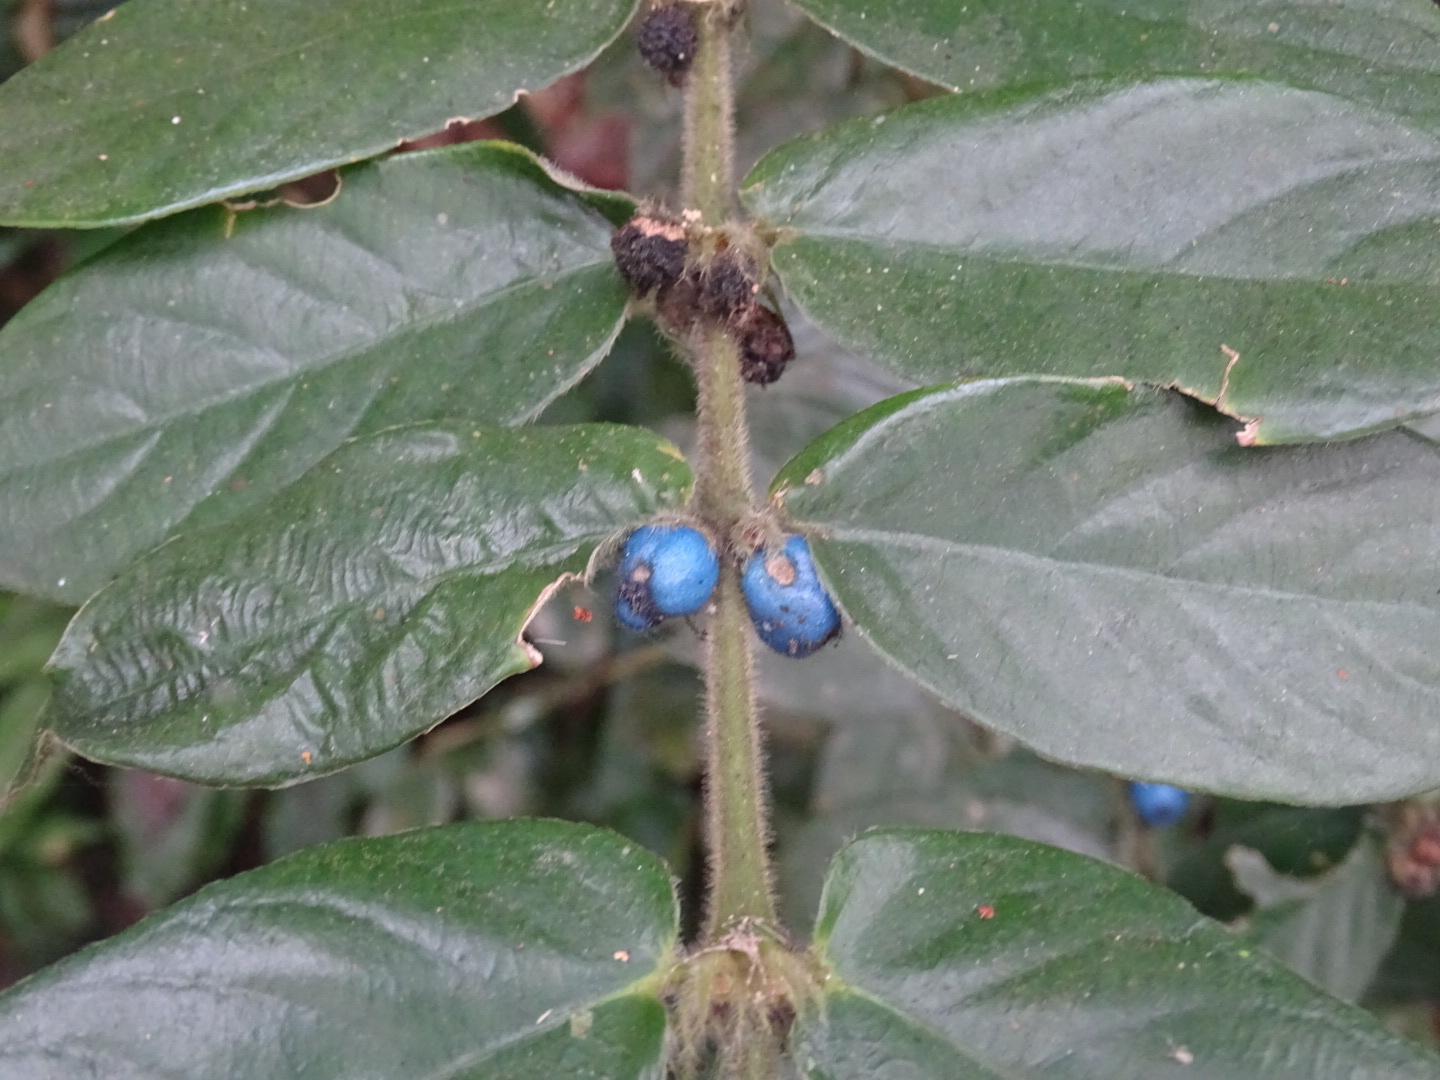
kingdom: Plantae
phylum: Tracheophyta
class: Magnoliopsida
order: Gentianales
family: Rubiaceae
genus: Lasianthus
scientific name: Lasianthus attenuatus
